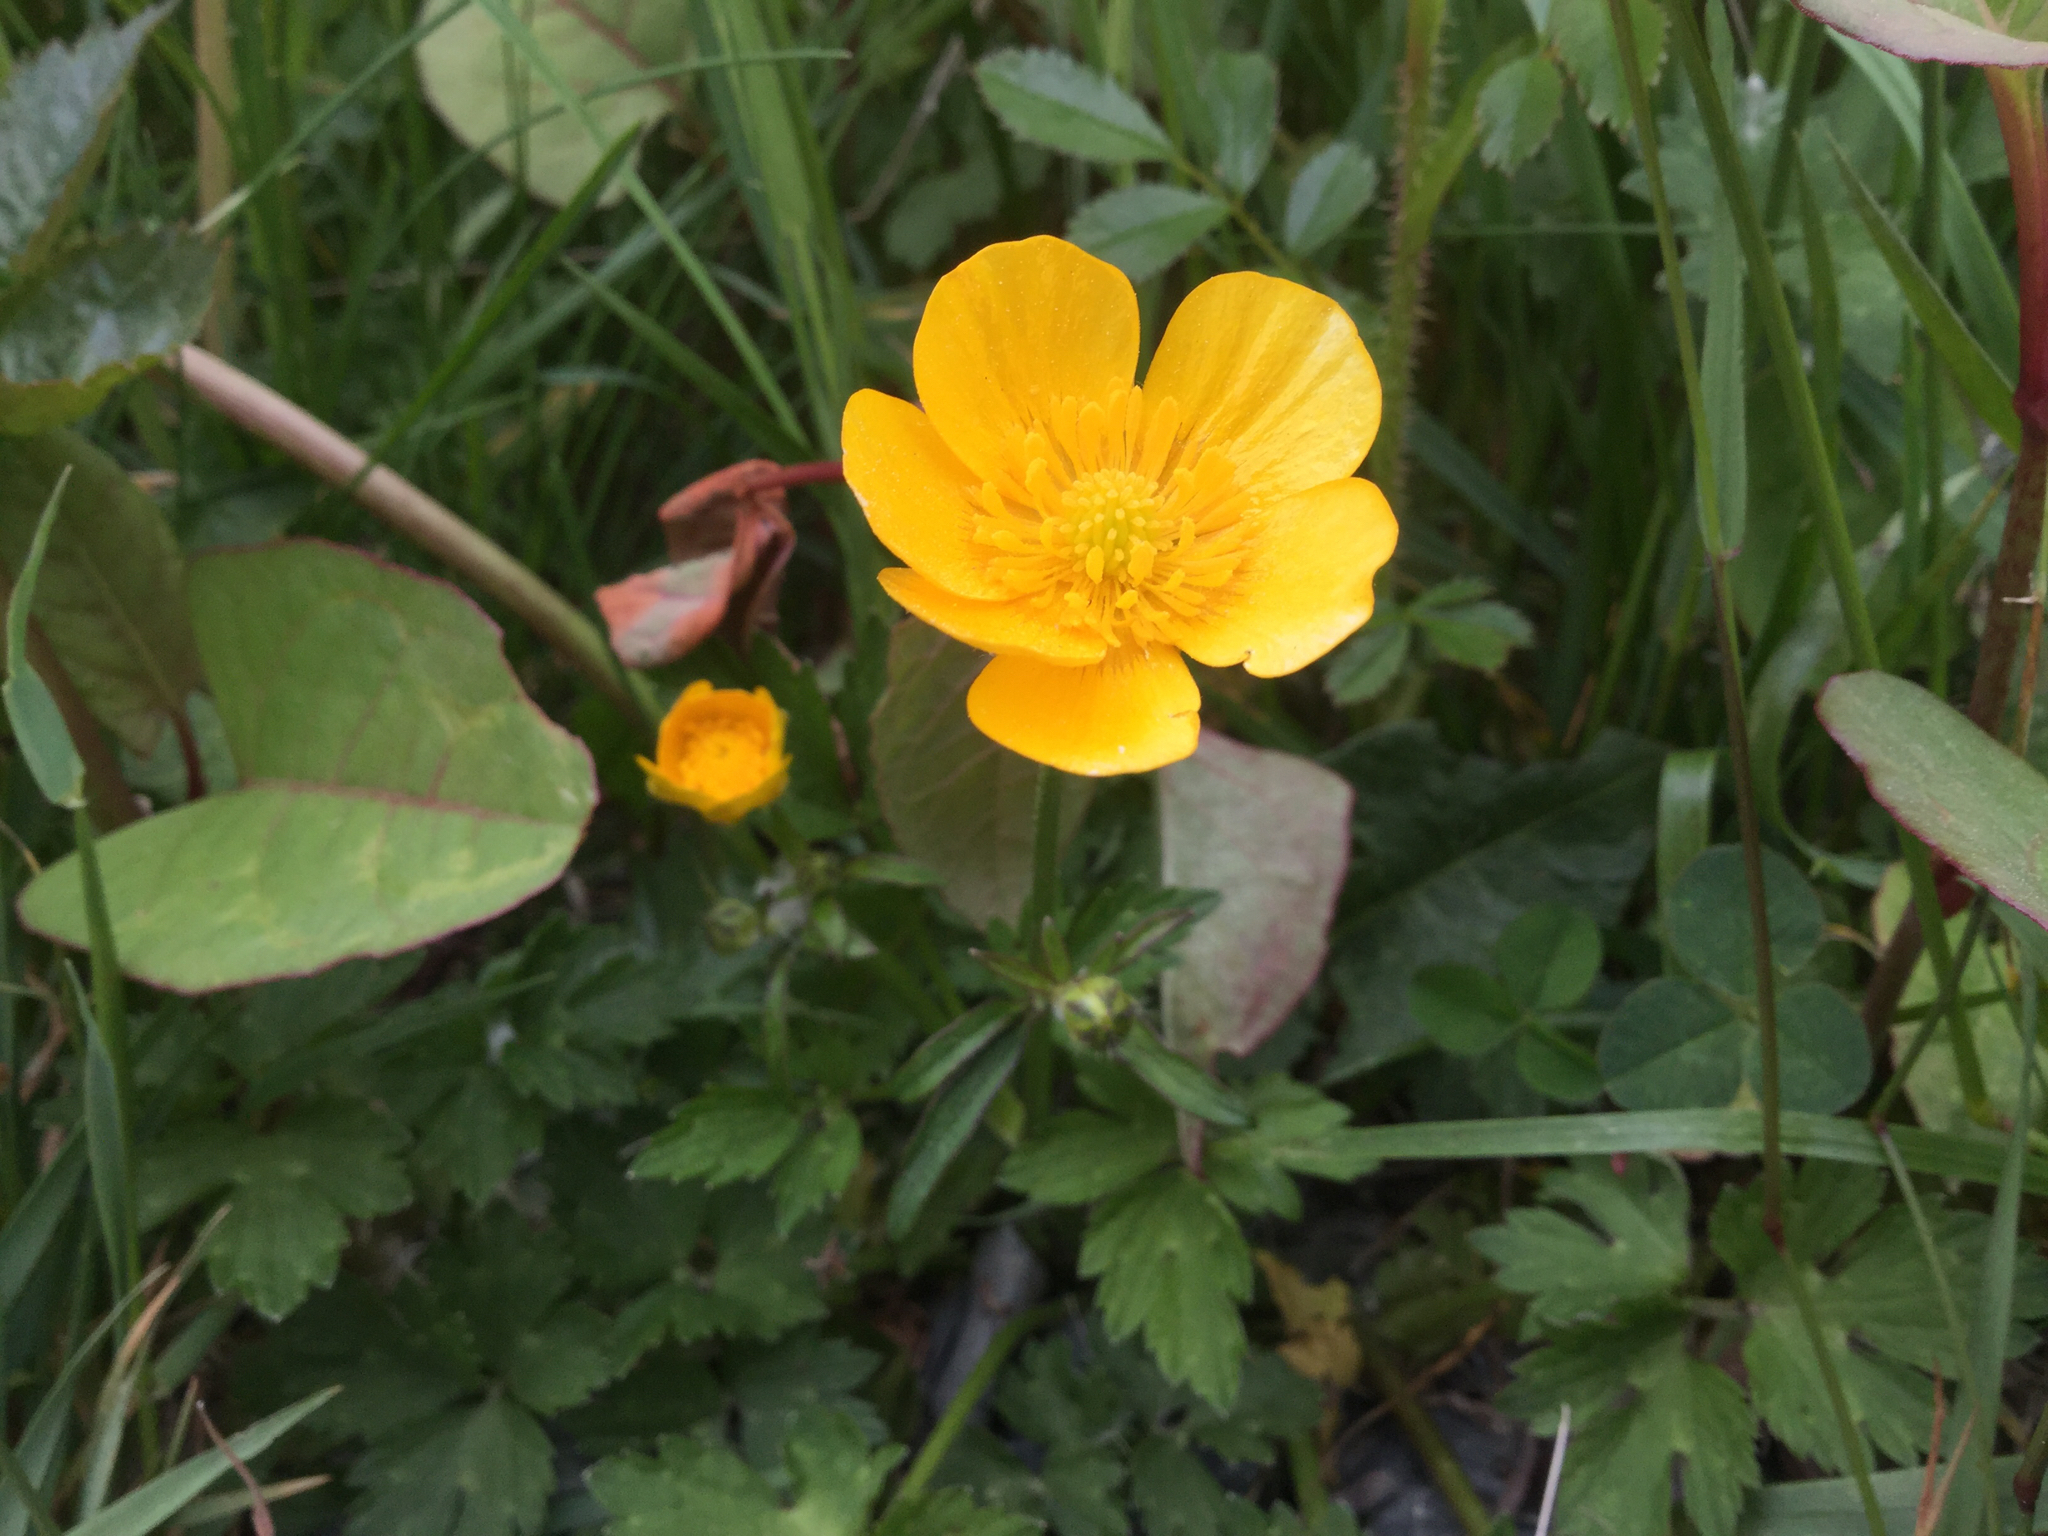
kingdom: Plantae
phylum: Tracheophyta
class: Magnoliopsida
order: Ranunculales
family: Ranunculaceae
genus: Ranunculus
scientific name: Ranunculus repens
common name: Creeping buttercup
